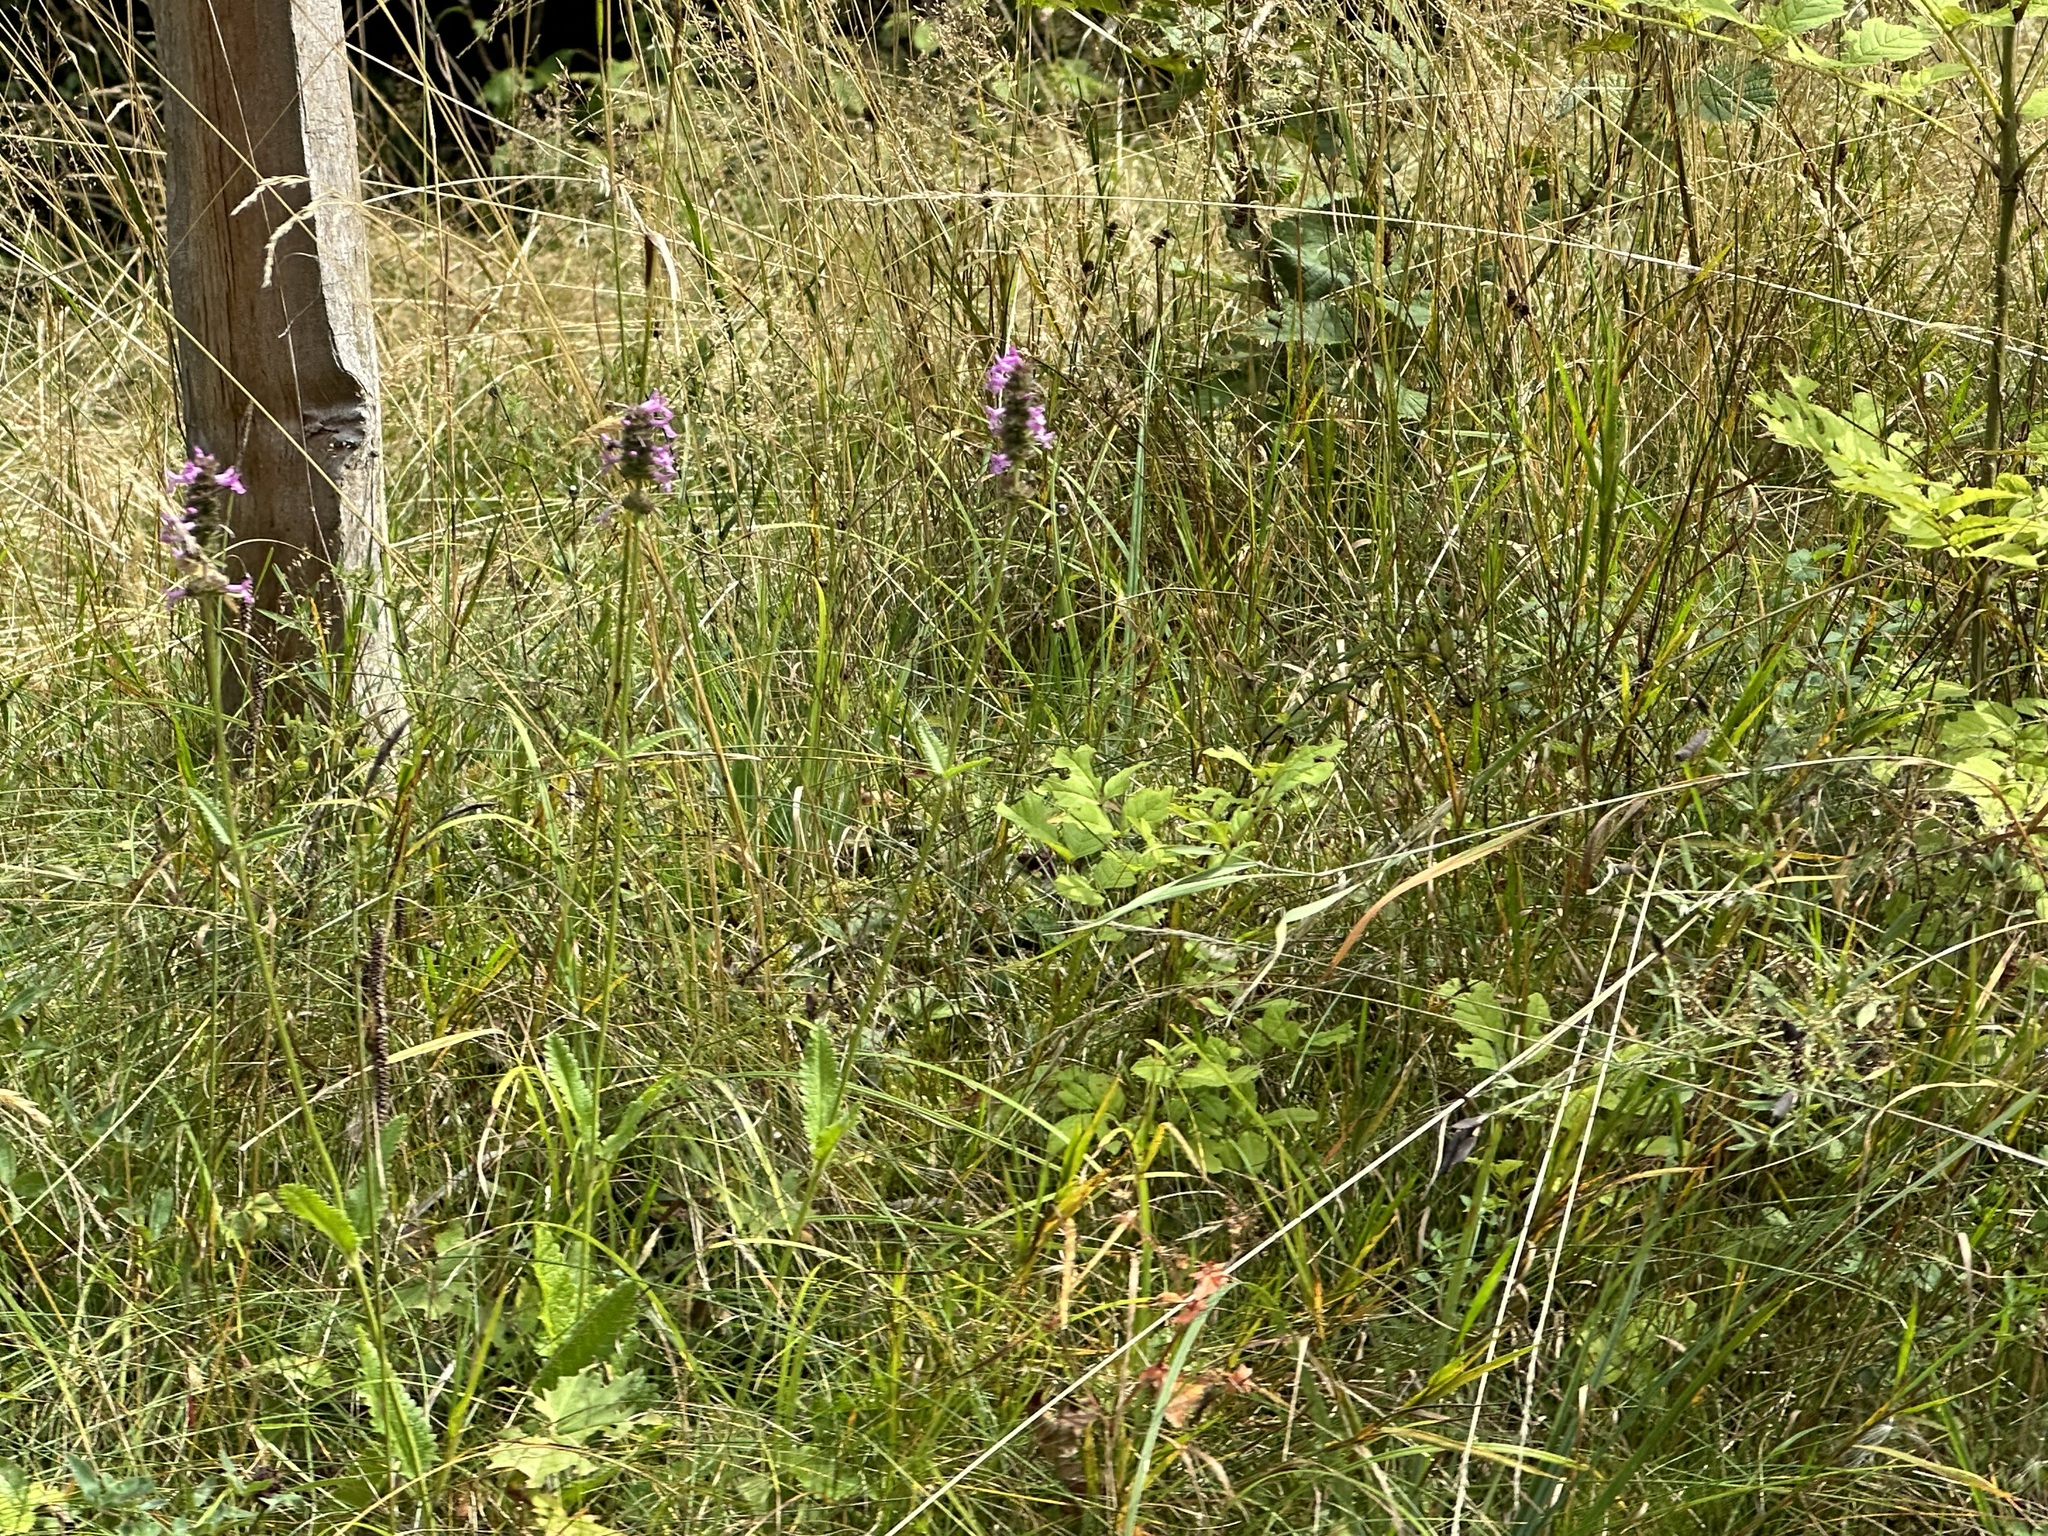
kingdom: Plantae
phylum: Tracheophyta
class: Magnoliopsida
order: Lamiales
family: Lamiaceae
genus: Betonica
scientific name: Betonica officinalis
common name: Bishop's-wort
